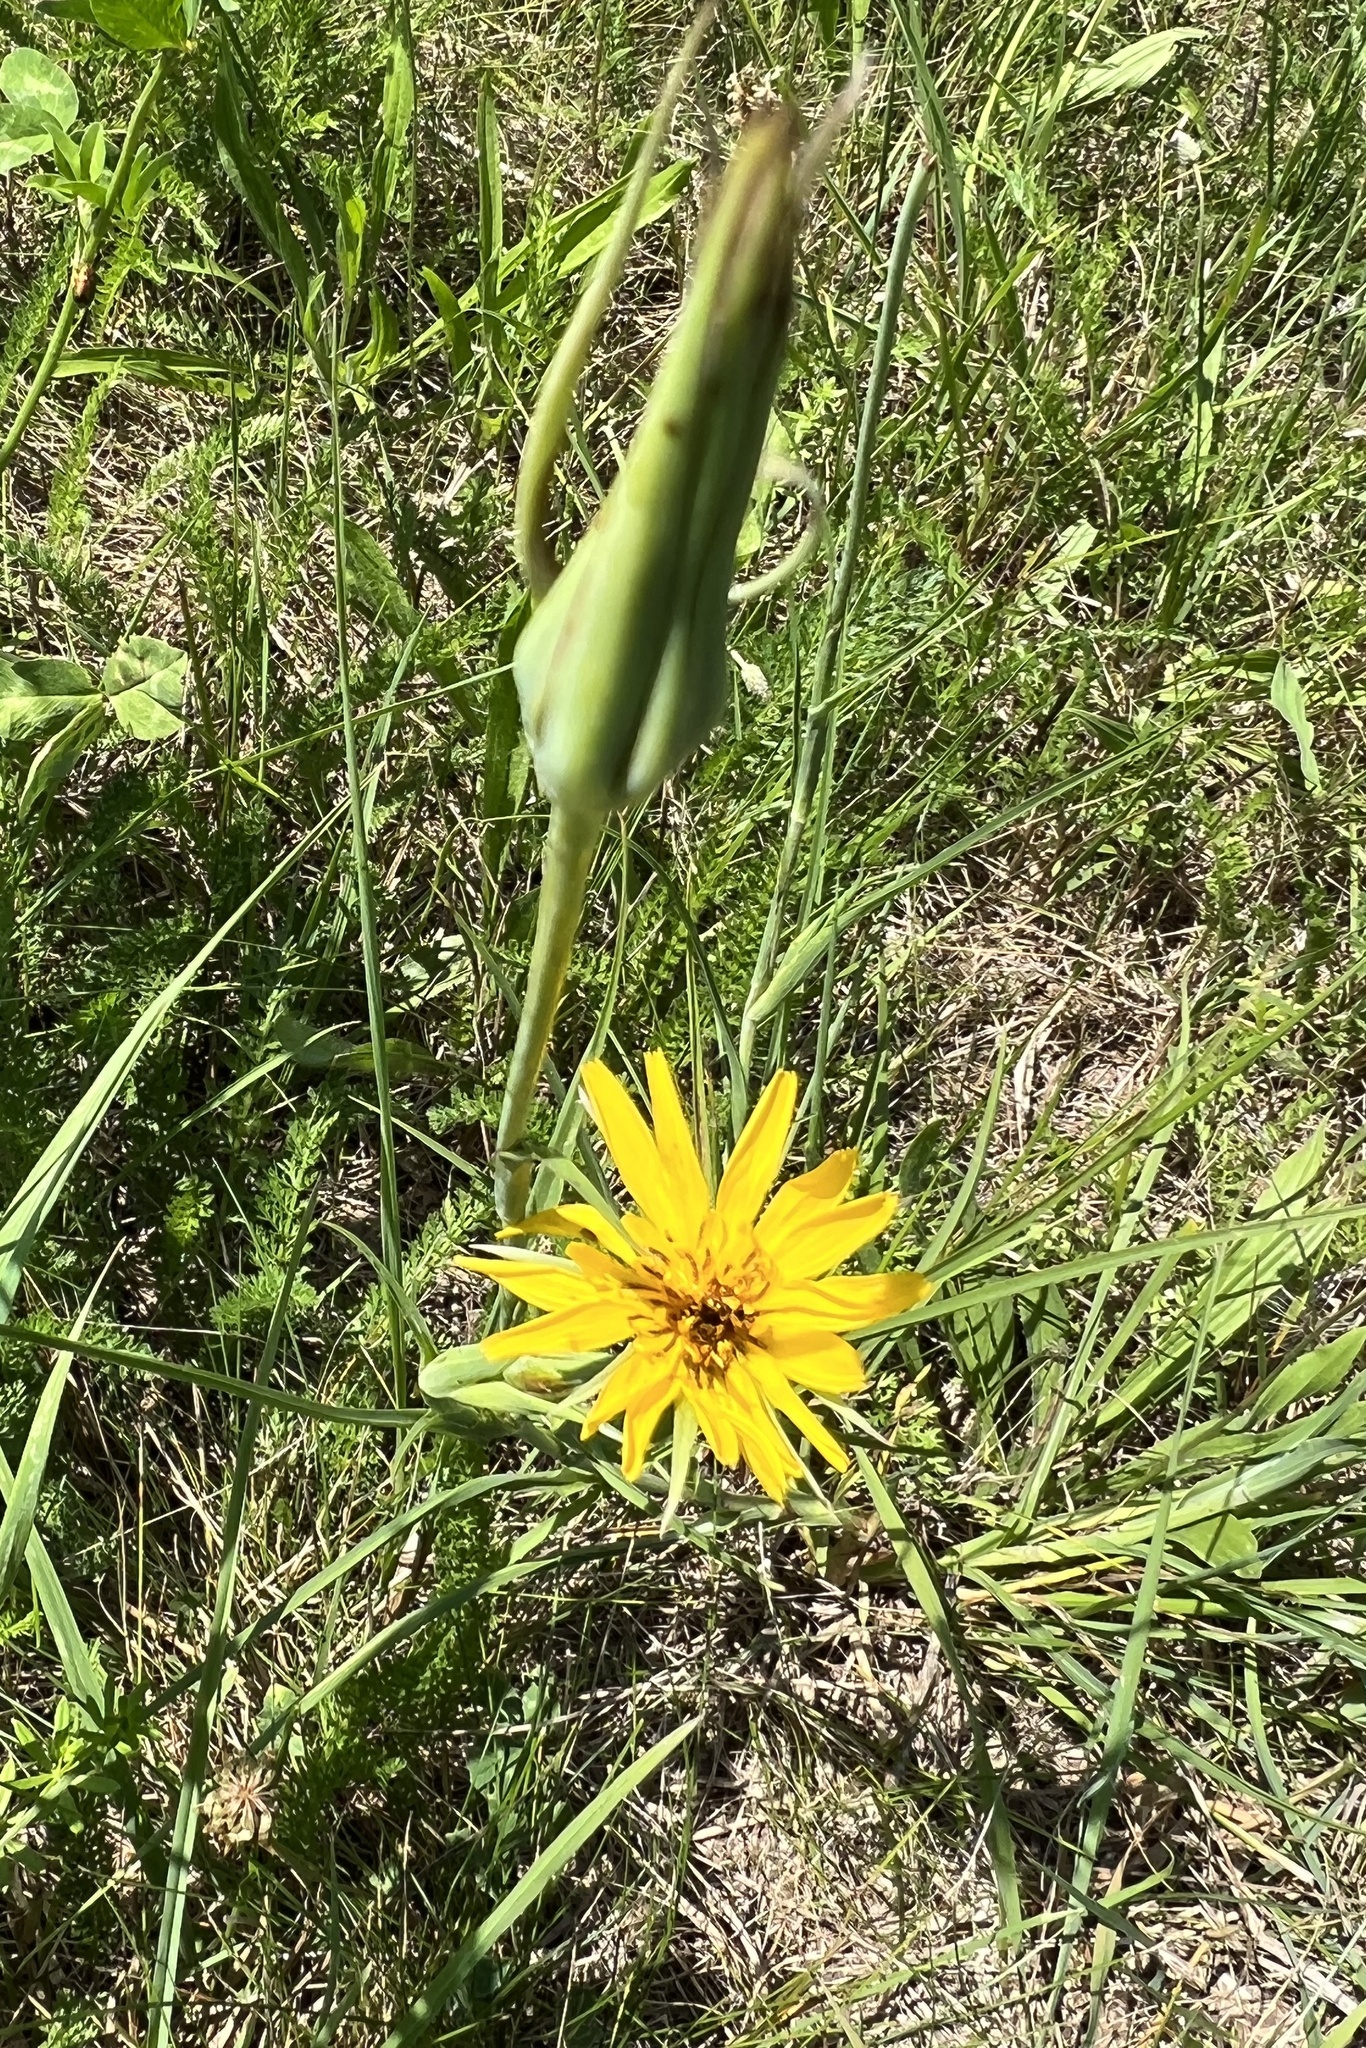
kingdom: Plantae
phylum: Tracheophyta
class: Magnoliopsida
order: Asterales
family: Asteraceae
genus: Tragopogon
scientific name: Tragopogon orientalis
